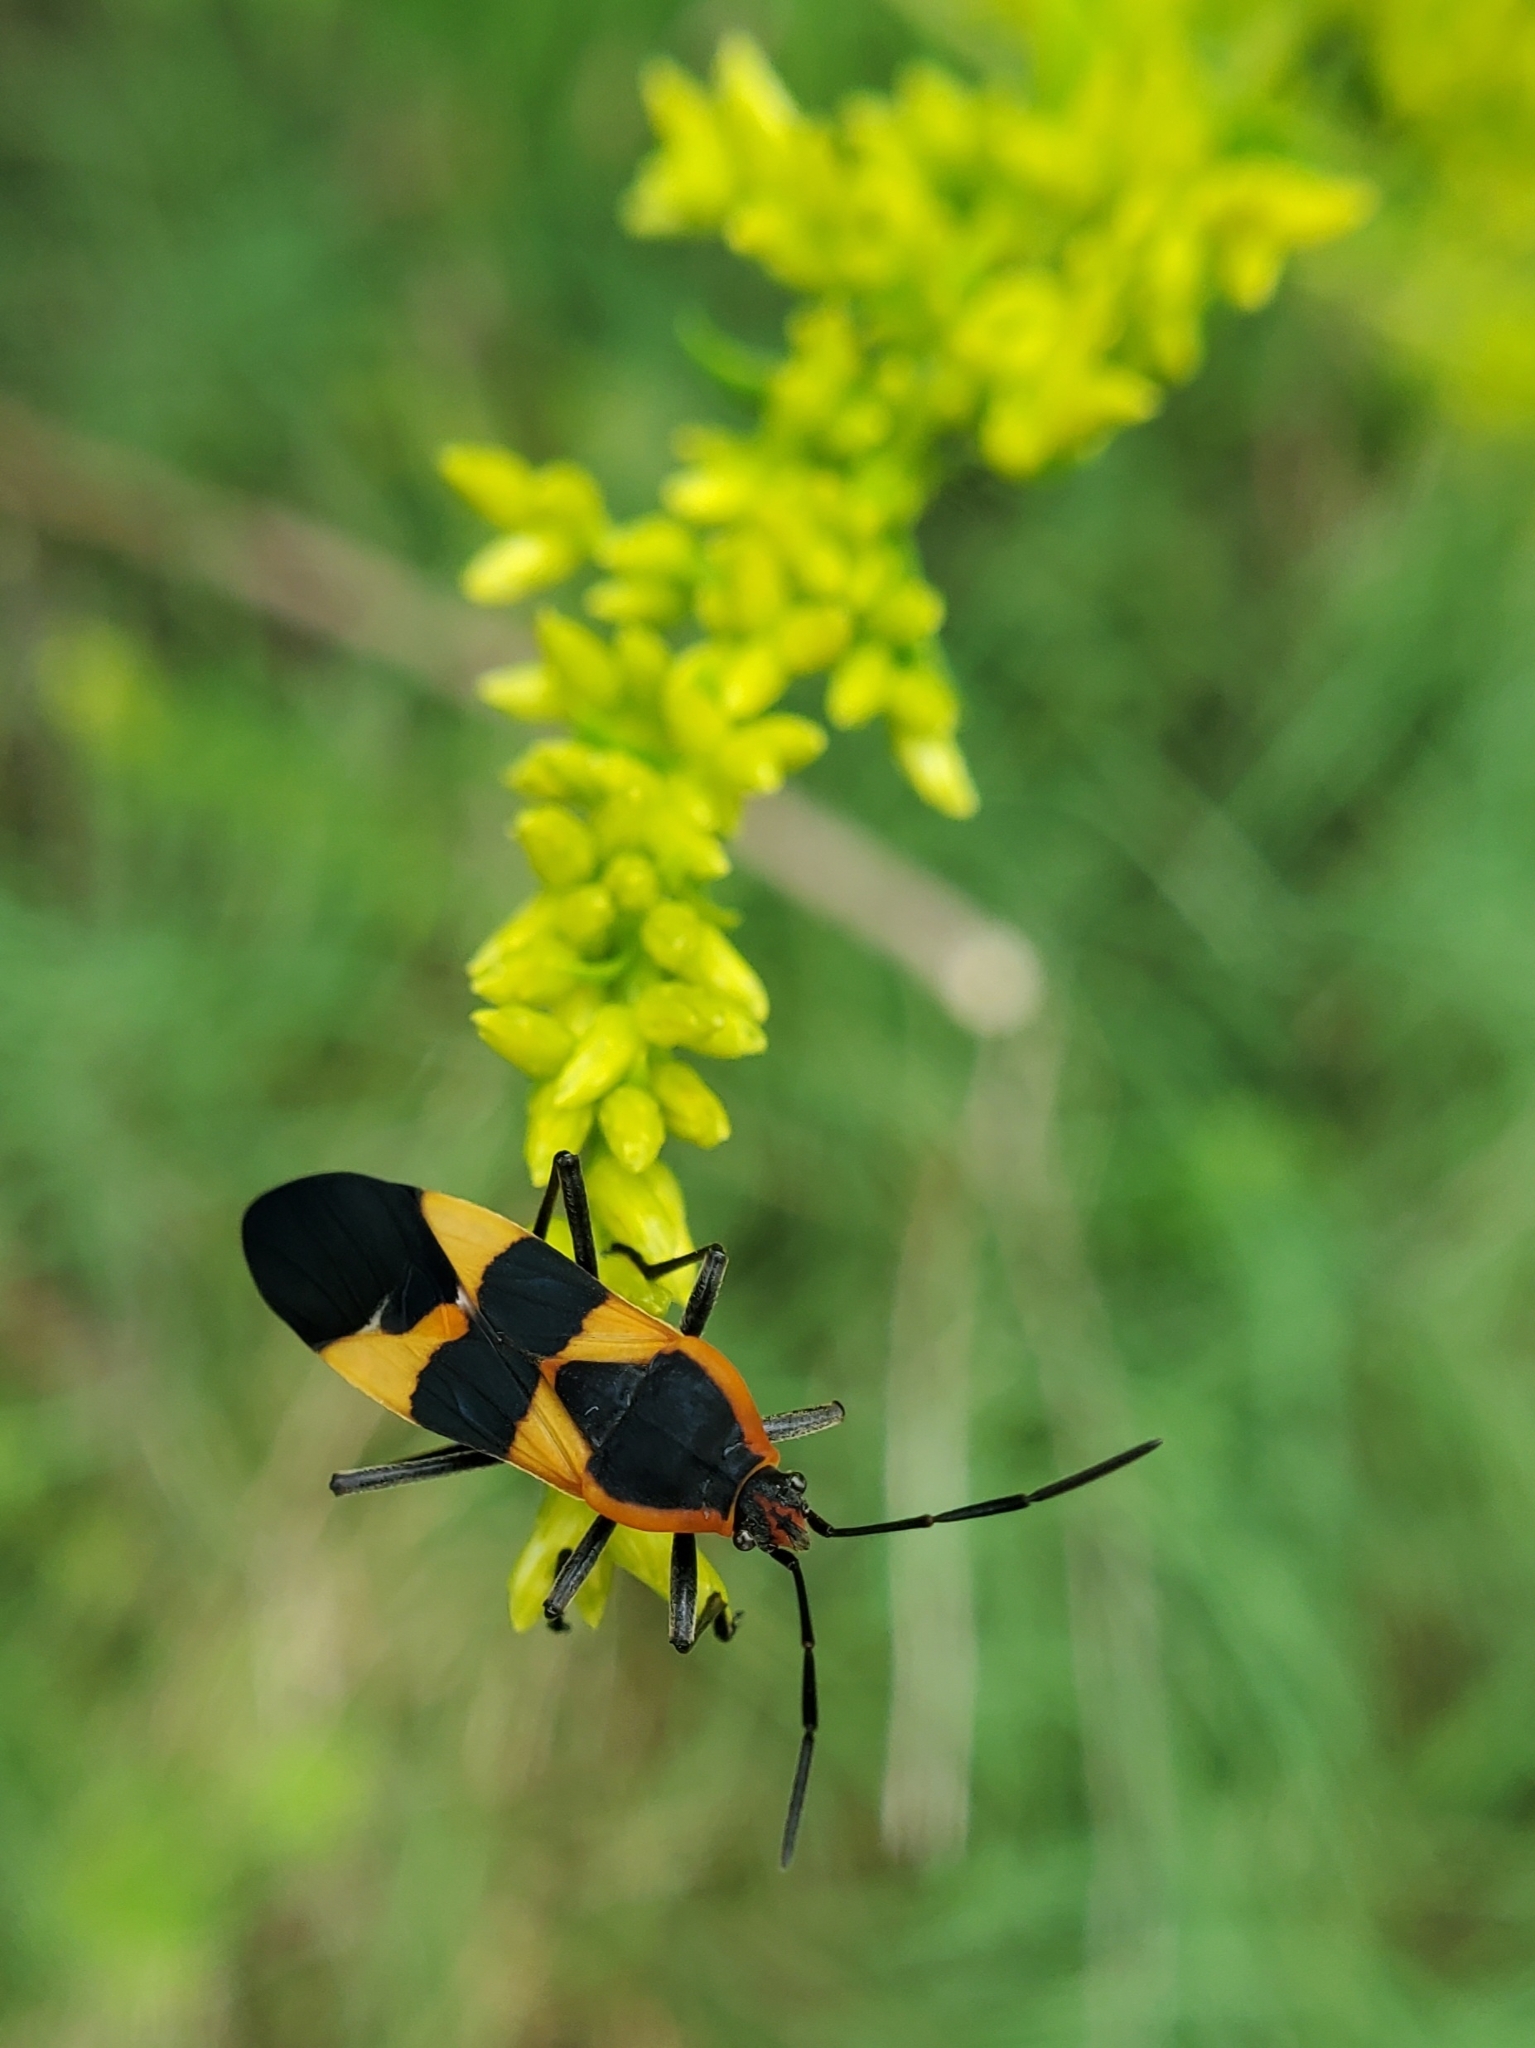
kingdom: Animalia
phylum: Arthropoda
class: Insecta
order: Hemiptera
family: Lygaeidae
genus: Oncopeltus
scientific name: Oncopeltus fasciatus
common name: Large milkweed bug
